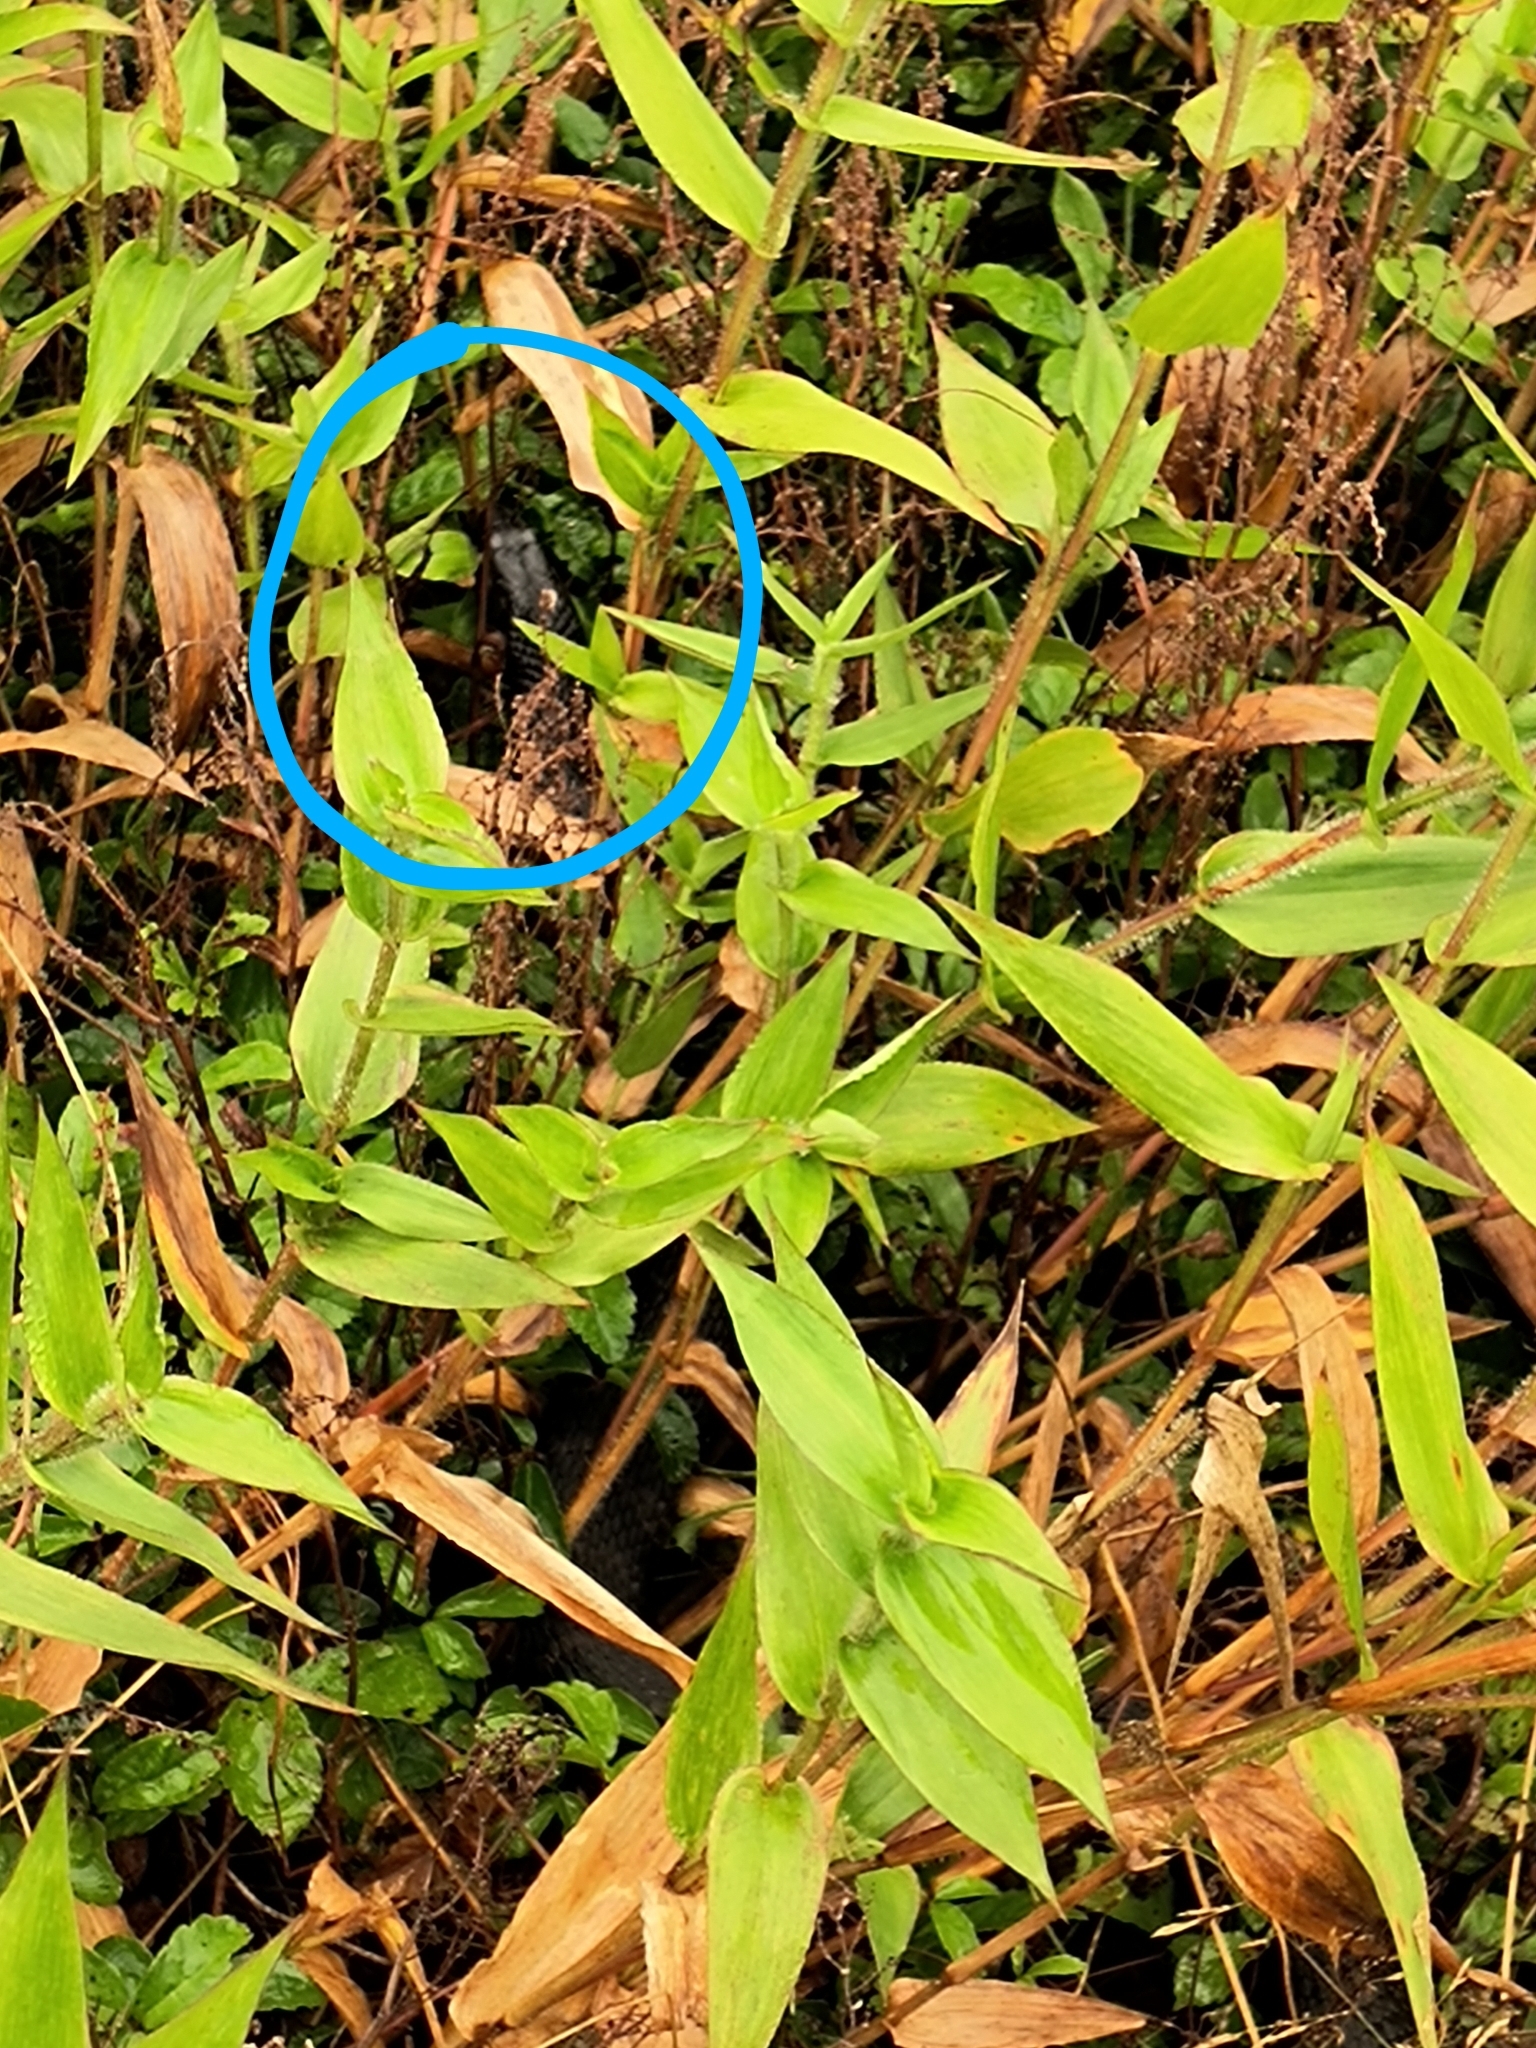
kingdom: Animalia
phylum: Chordata
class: Squamata
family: Colubridae
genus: Nerodia
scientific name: Nerodia sipedon
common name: Northern water snake
